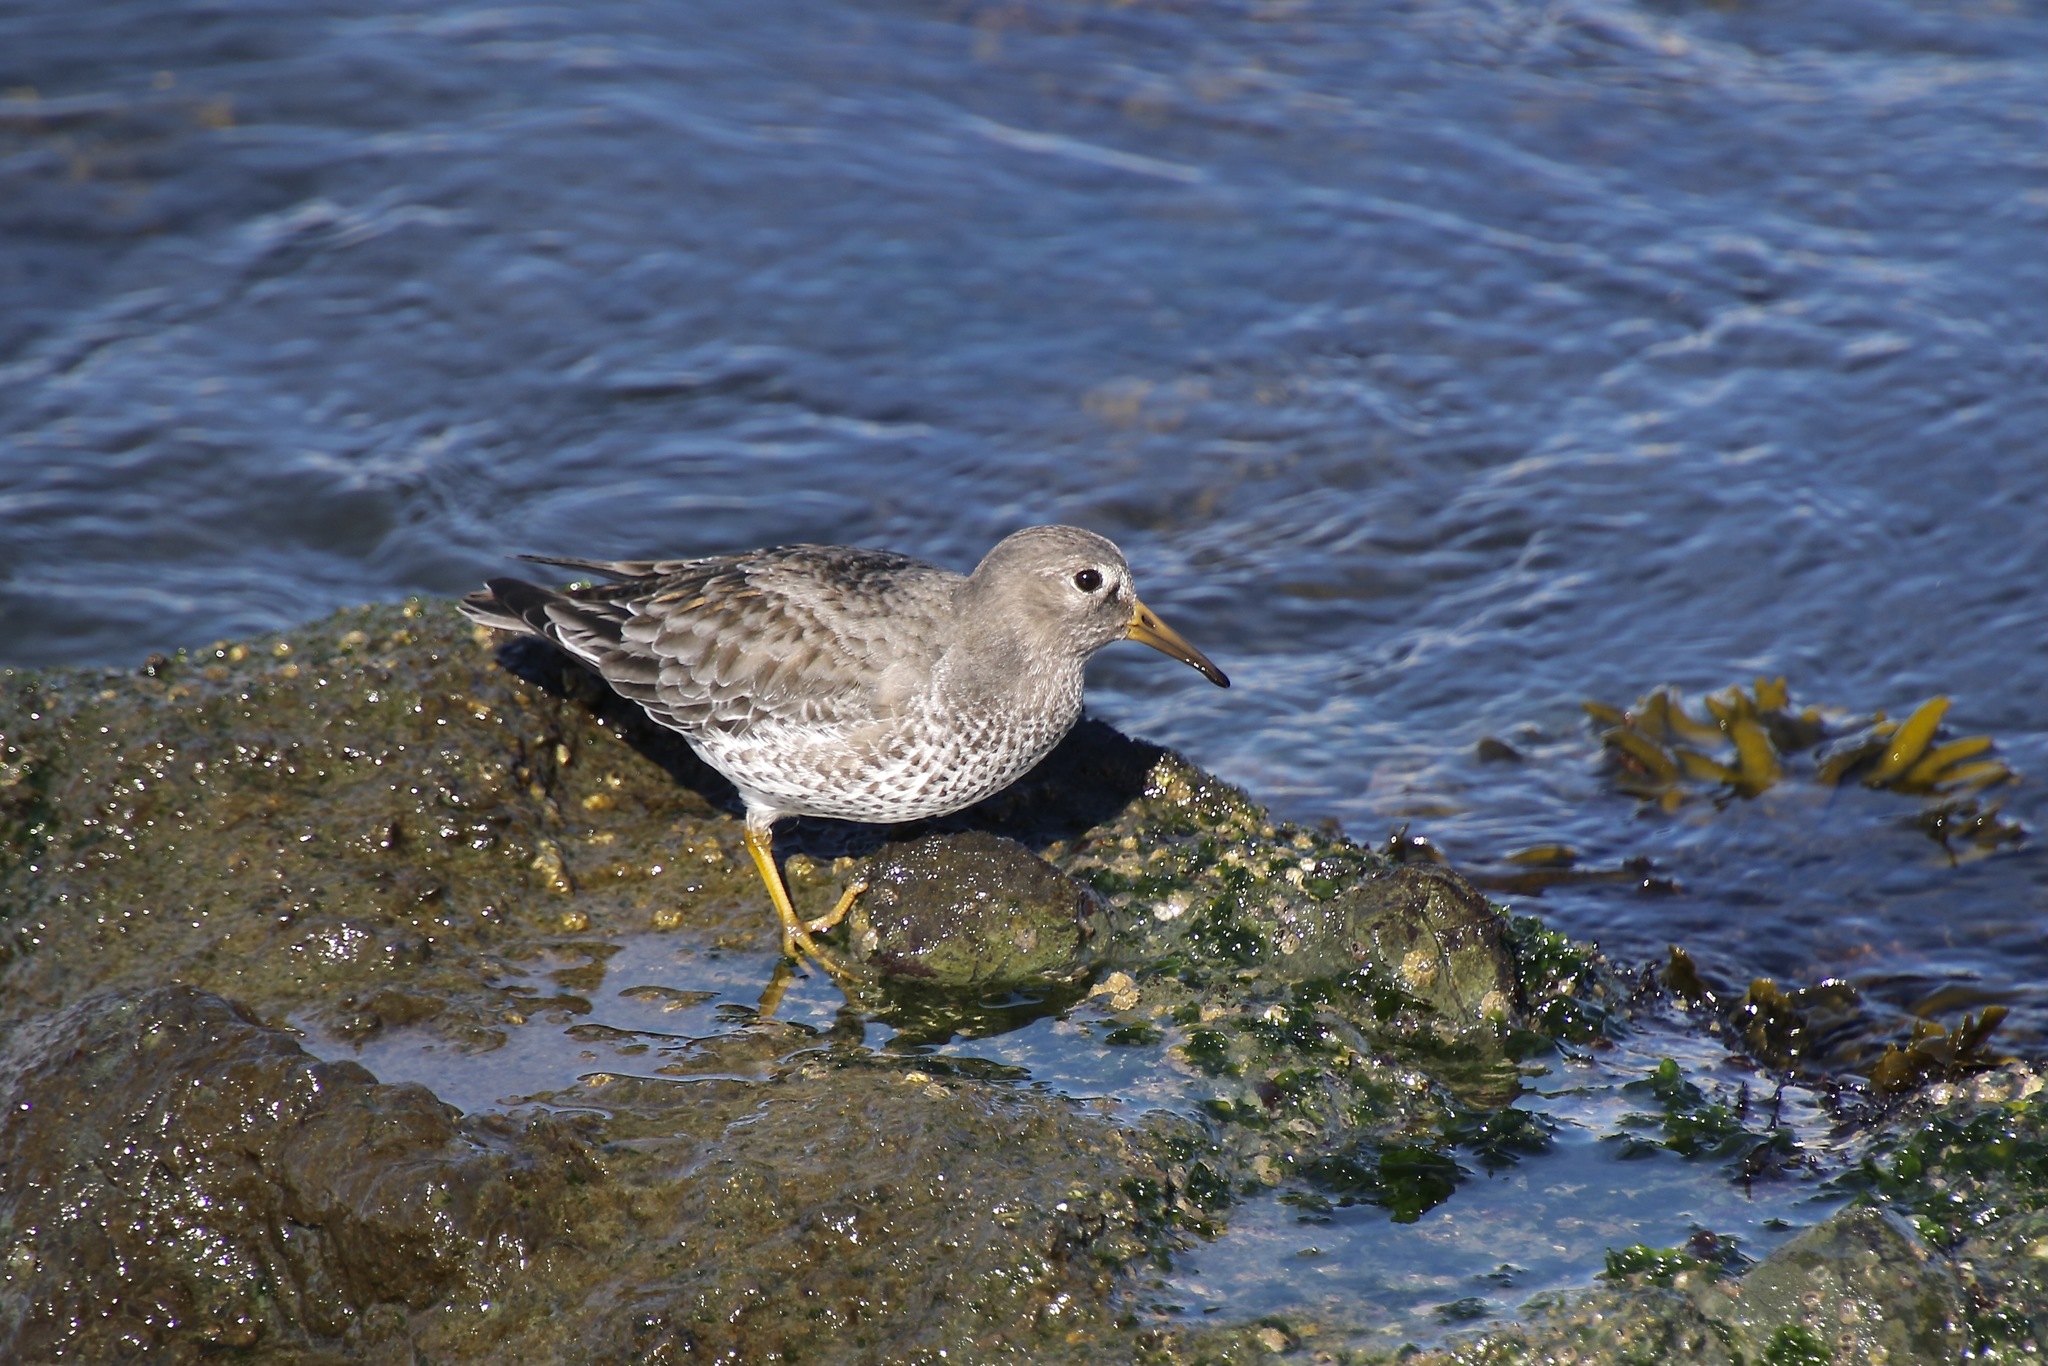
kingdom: Animalia
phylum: Chordata
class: Aves
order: Charadriiformes
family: Scolopacidae
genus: Calidris
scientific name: Calidris ptilocnemis
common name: Rock sandpiper
